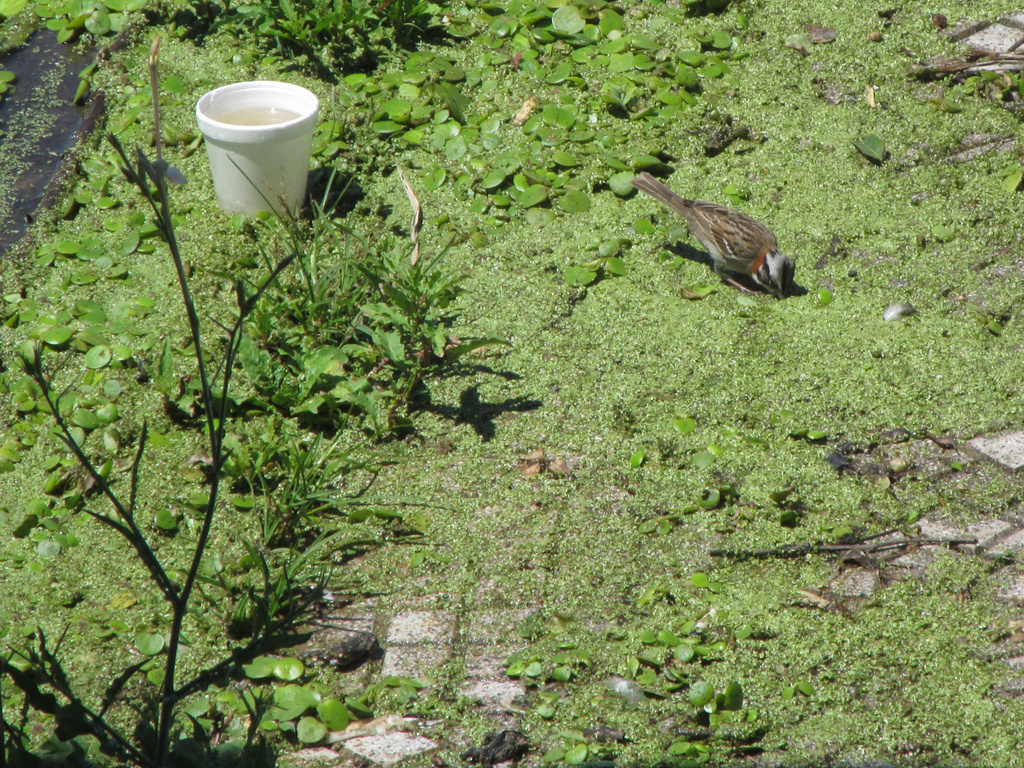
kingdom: Animalia
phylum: Chordata
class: Aves
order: Passeriformes
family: Passerellidae
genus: Zonotrichia
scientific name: Zonotrichia capensis
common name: Rufous-collared sparrow
